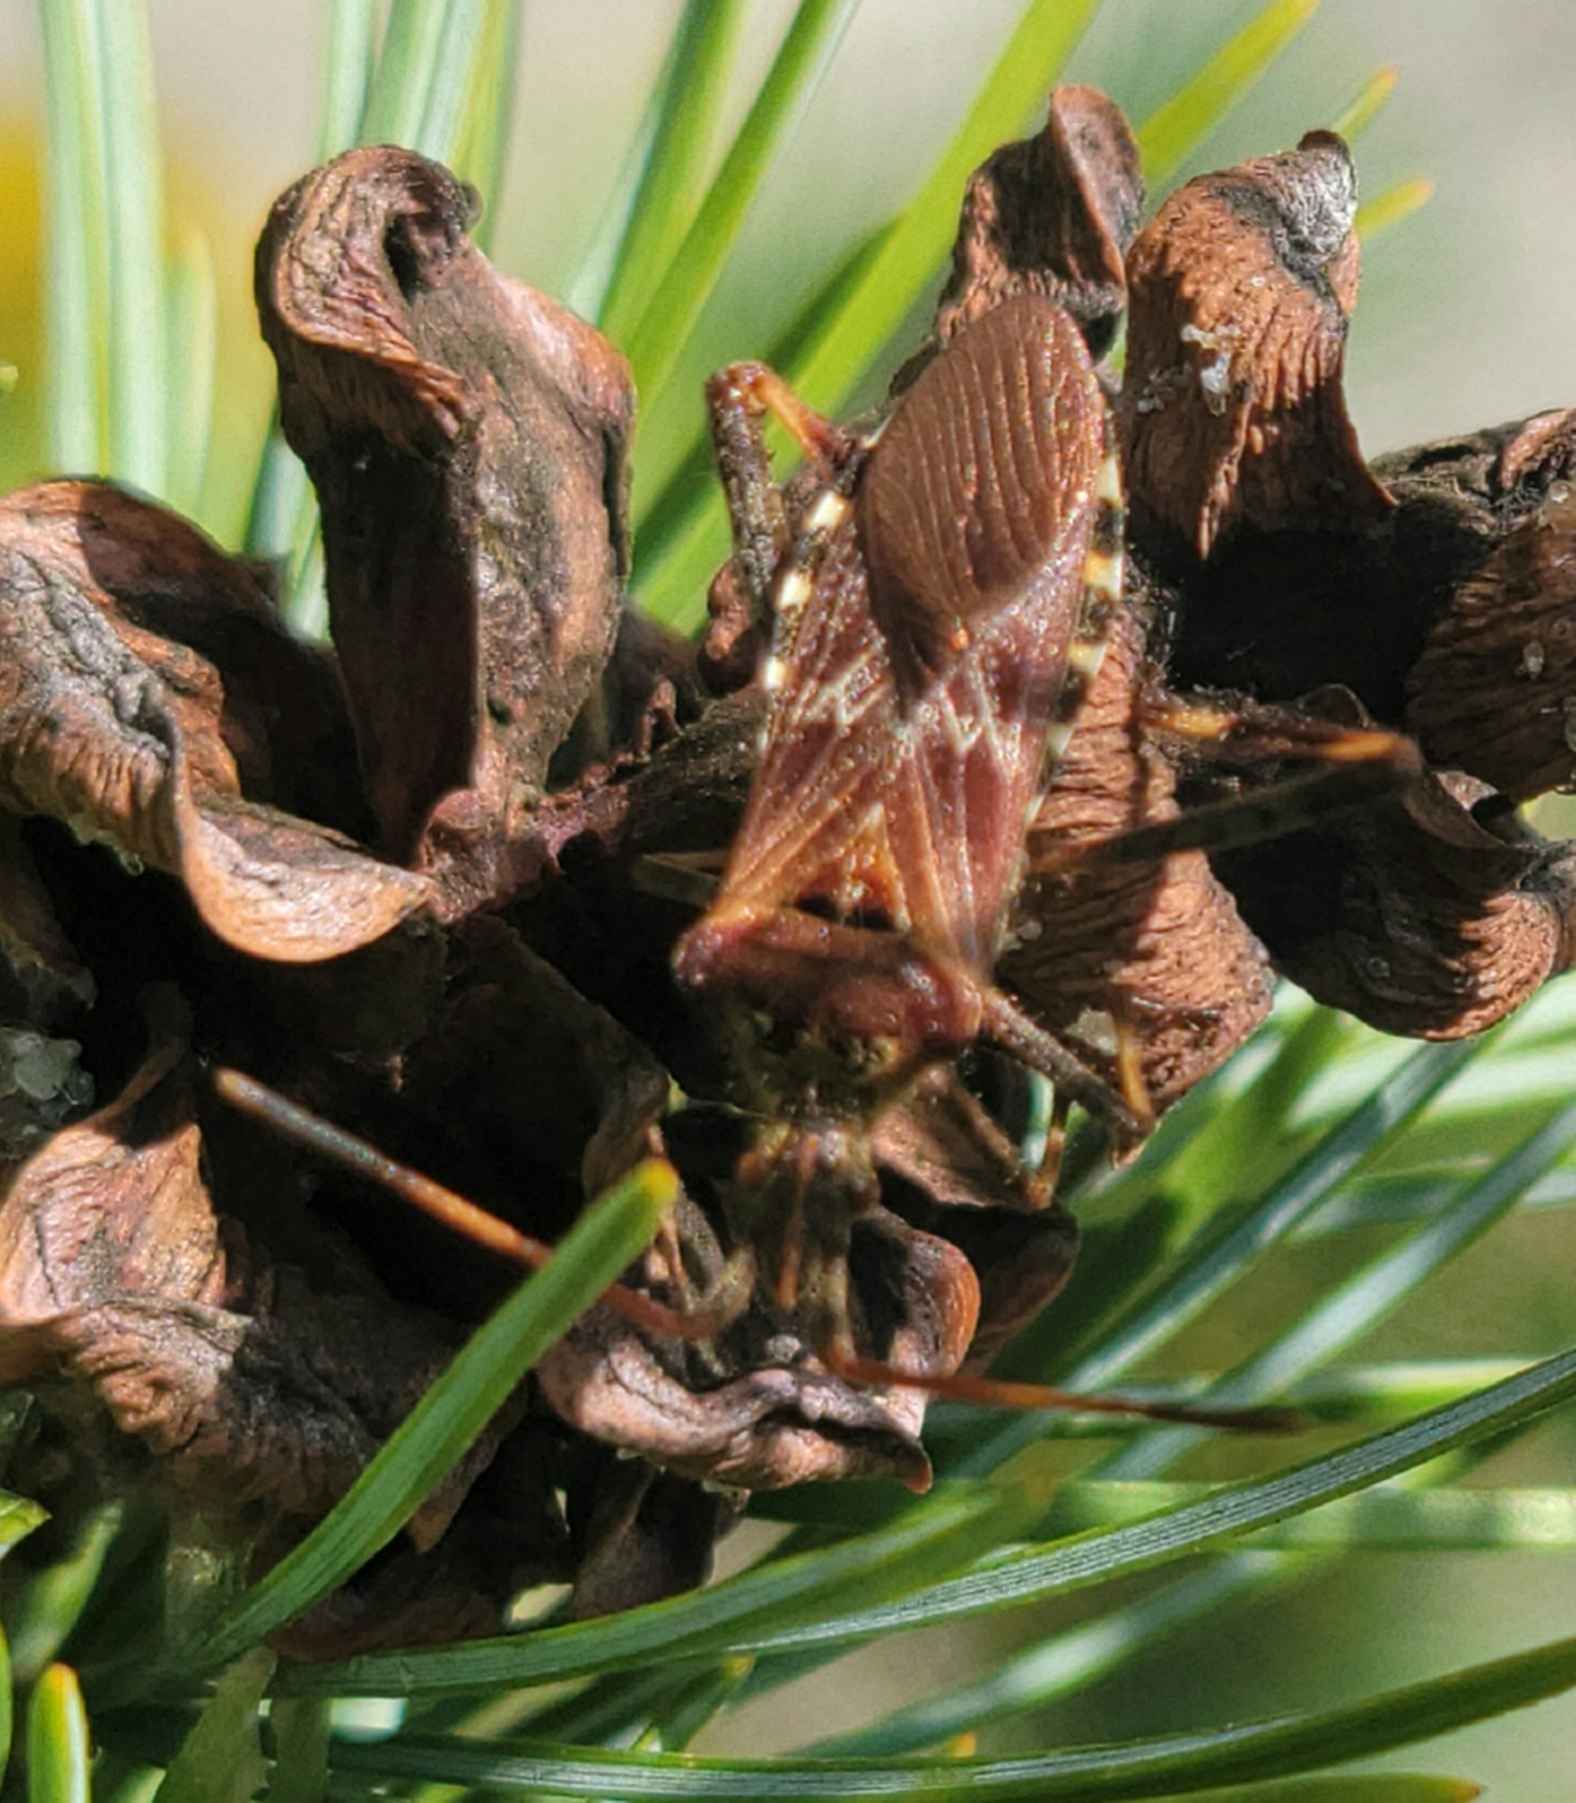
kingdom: Animalia
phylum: Arthropoda
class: Insecta
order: Hemiptera
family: Coreidae
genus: Leptoglossus
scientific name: Leptoglossus occidentalis
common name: Western conifer-seed bug
